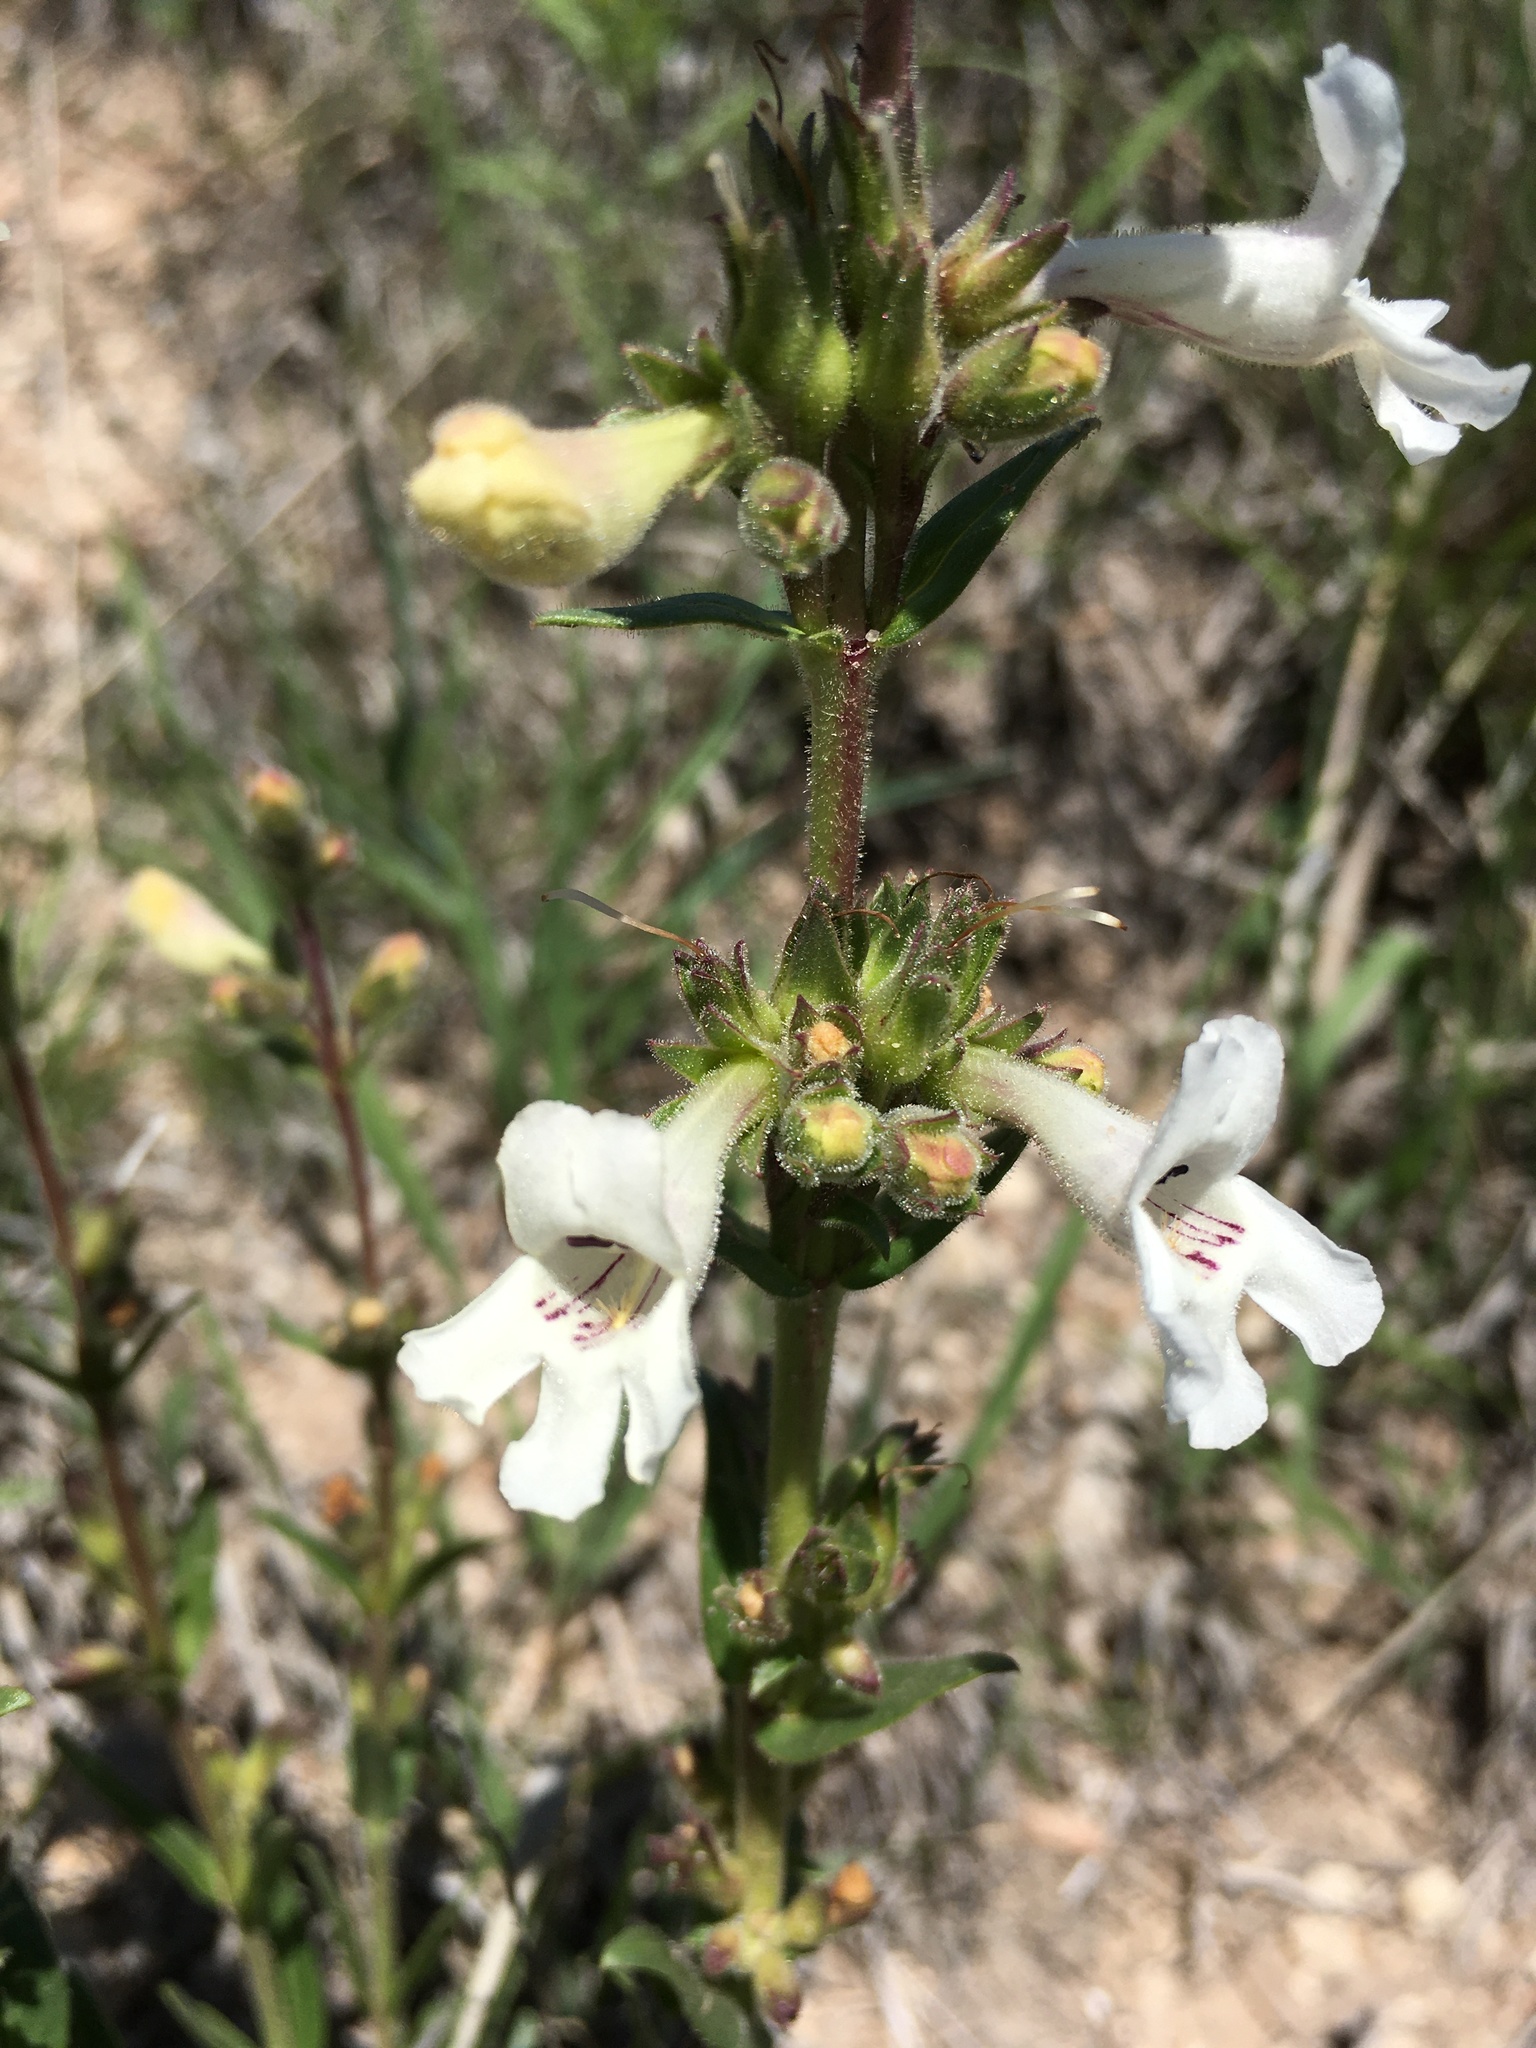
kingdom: Plantae
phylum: Tracheophyta
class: Magnoliopsida
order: Lamiales
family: Plantaginaceae
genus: Penstemon
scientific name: Penstemon albidus
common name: White beardtongue
